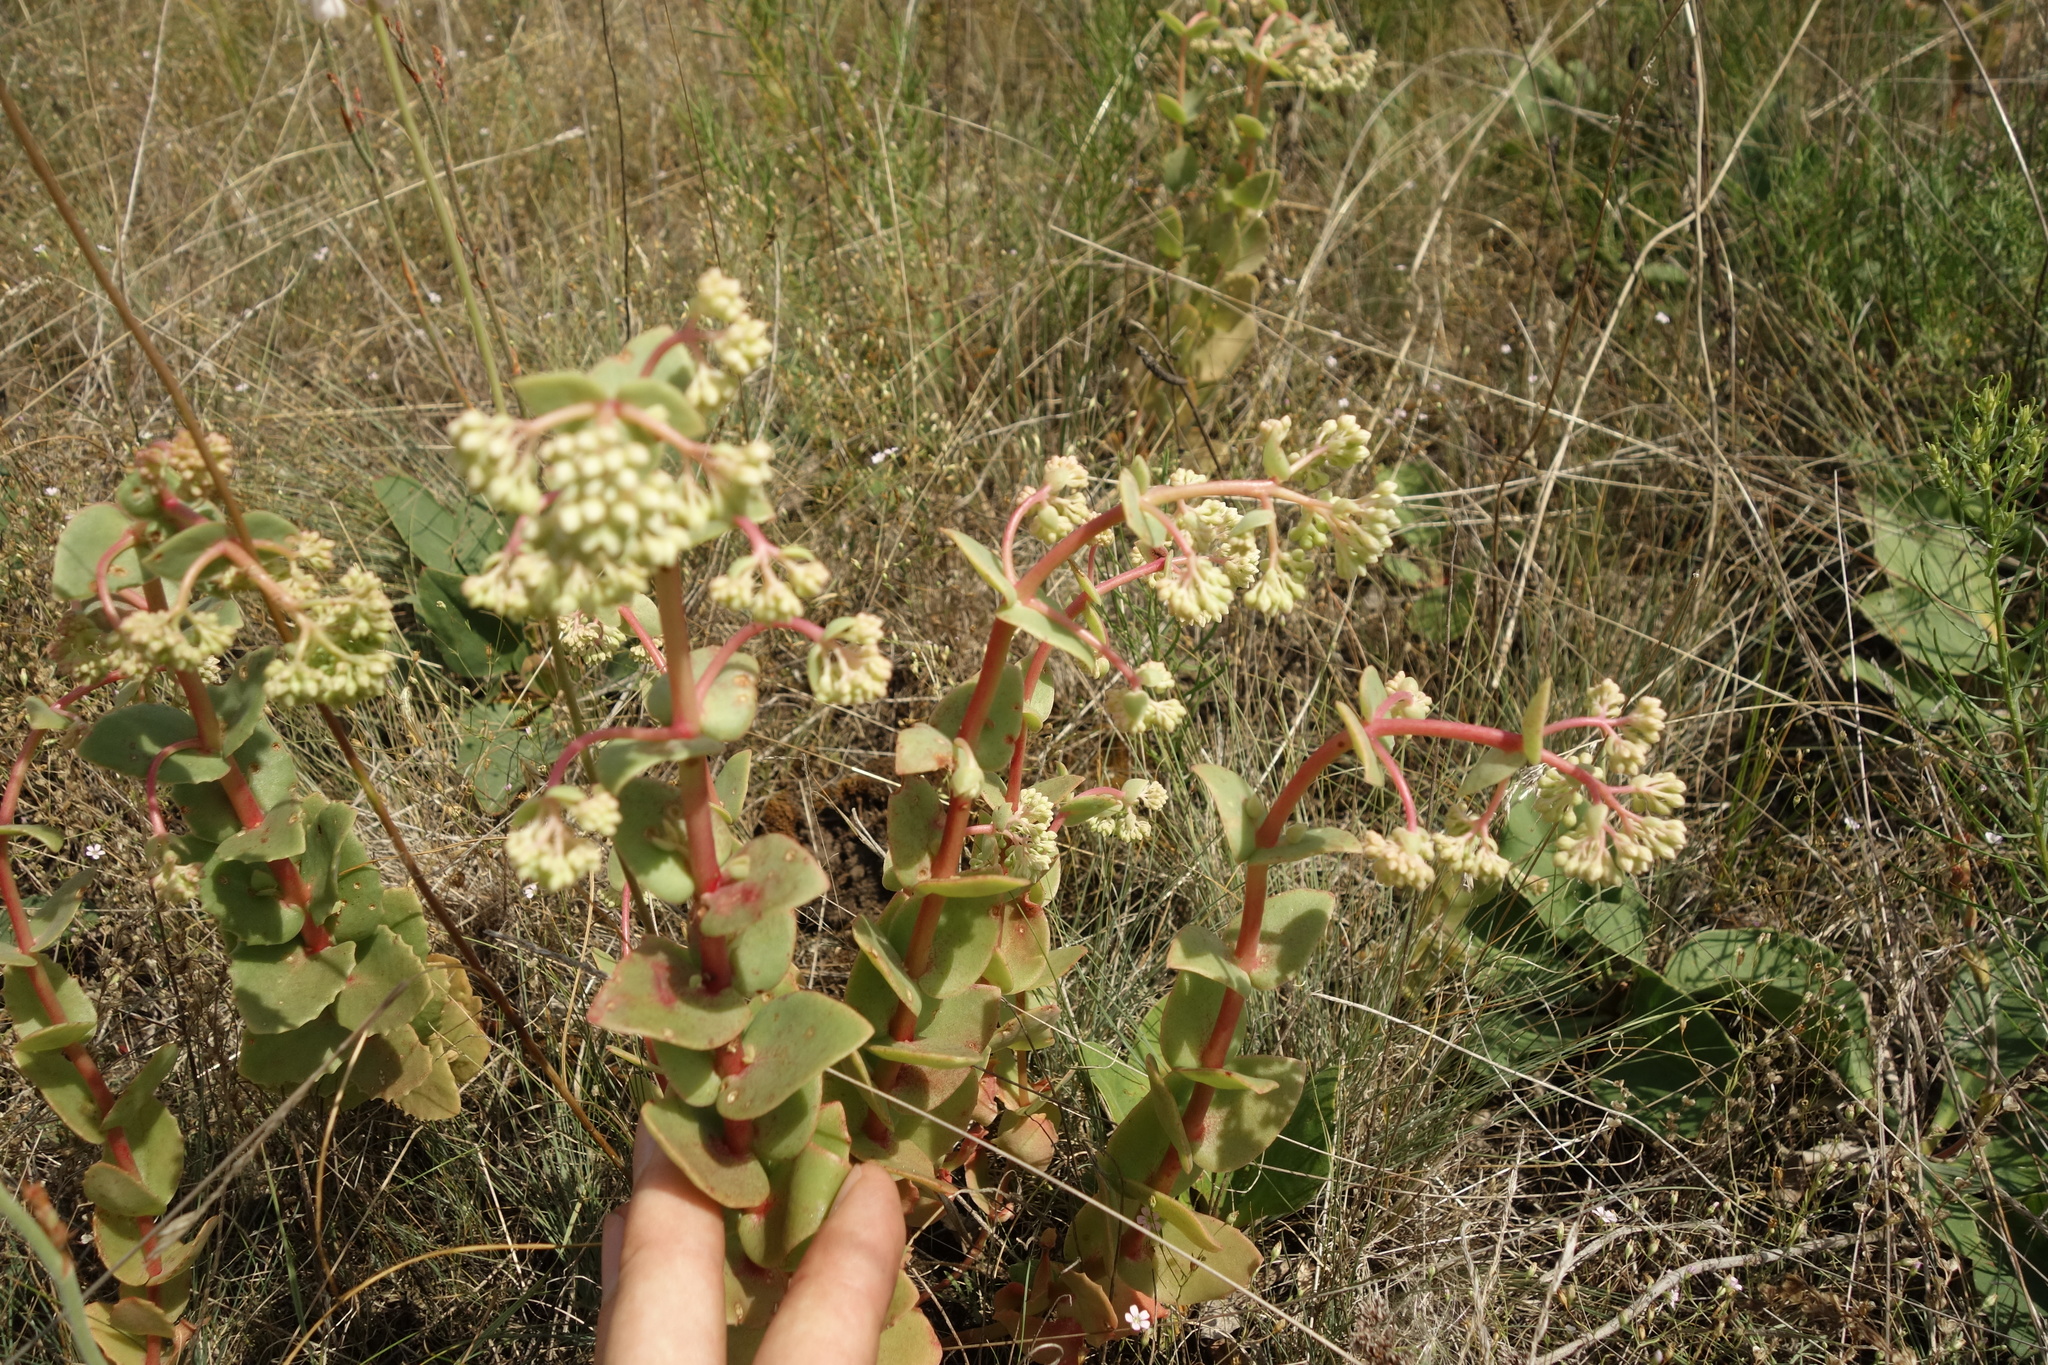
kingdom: Plantae
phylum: Tracheophyta
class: Magnoliopsida
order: Saxifragales
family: Crassulaceae
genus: Hylotelephium
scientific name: Hylotelephium maximum
